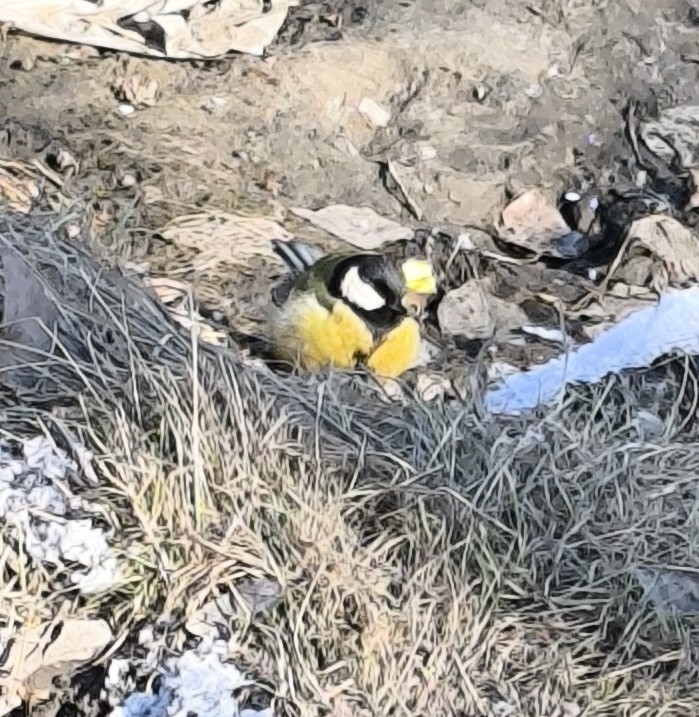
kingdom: Animalia
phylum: Chordata
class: Aves
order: Passeriformes
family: Paridae
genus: Parus
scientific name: Parus major
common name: Great tit
